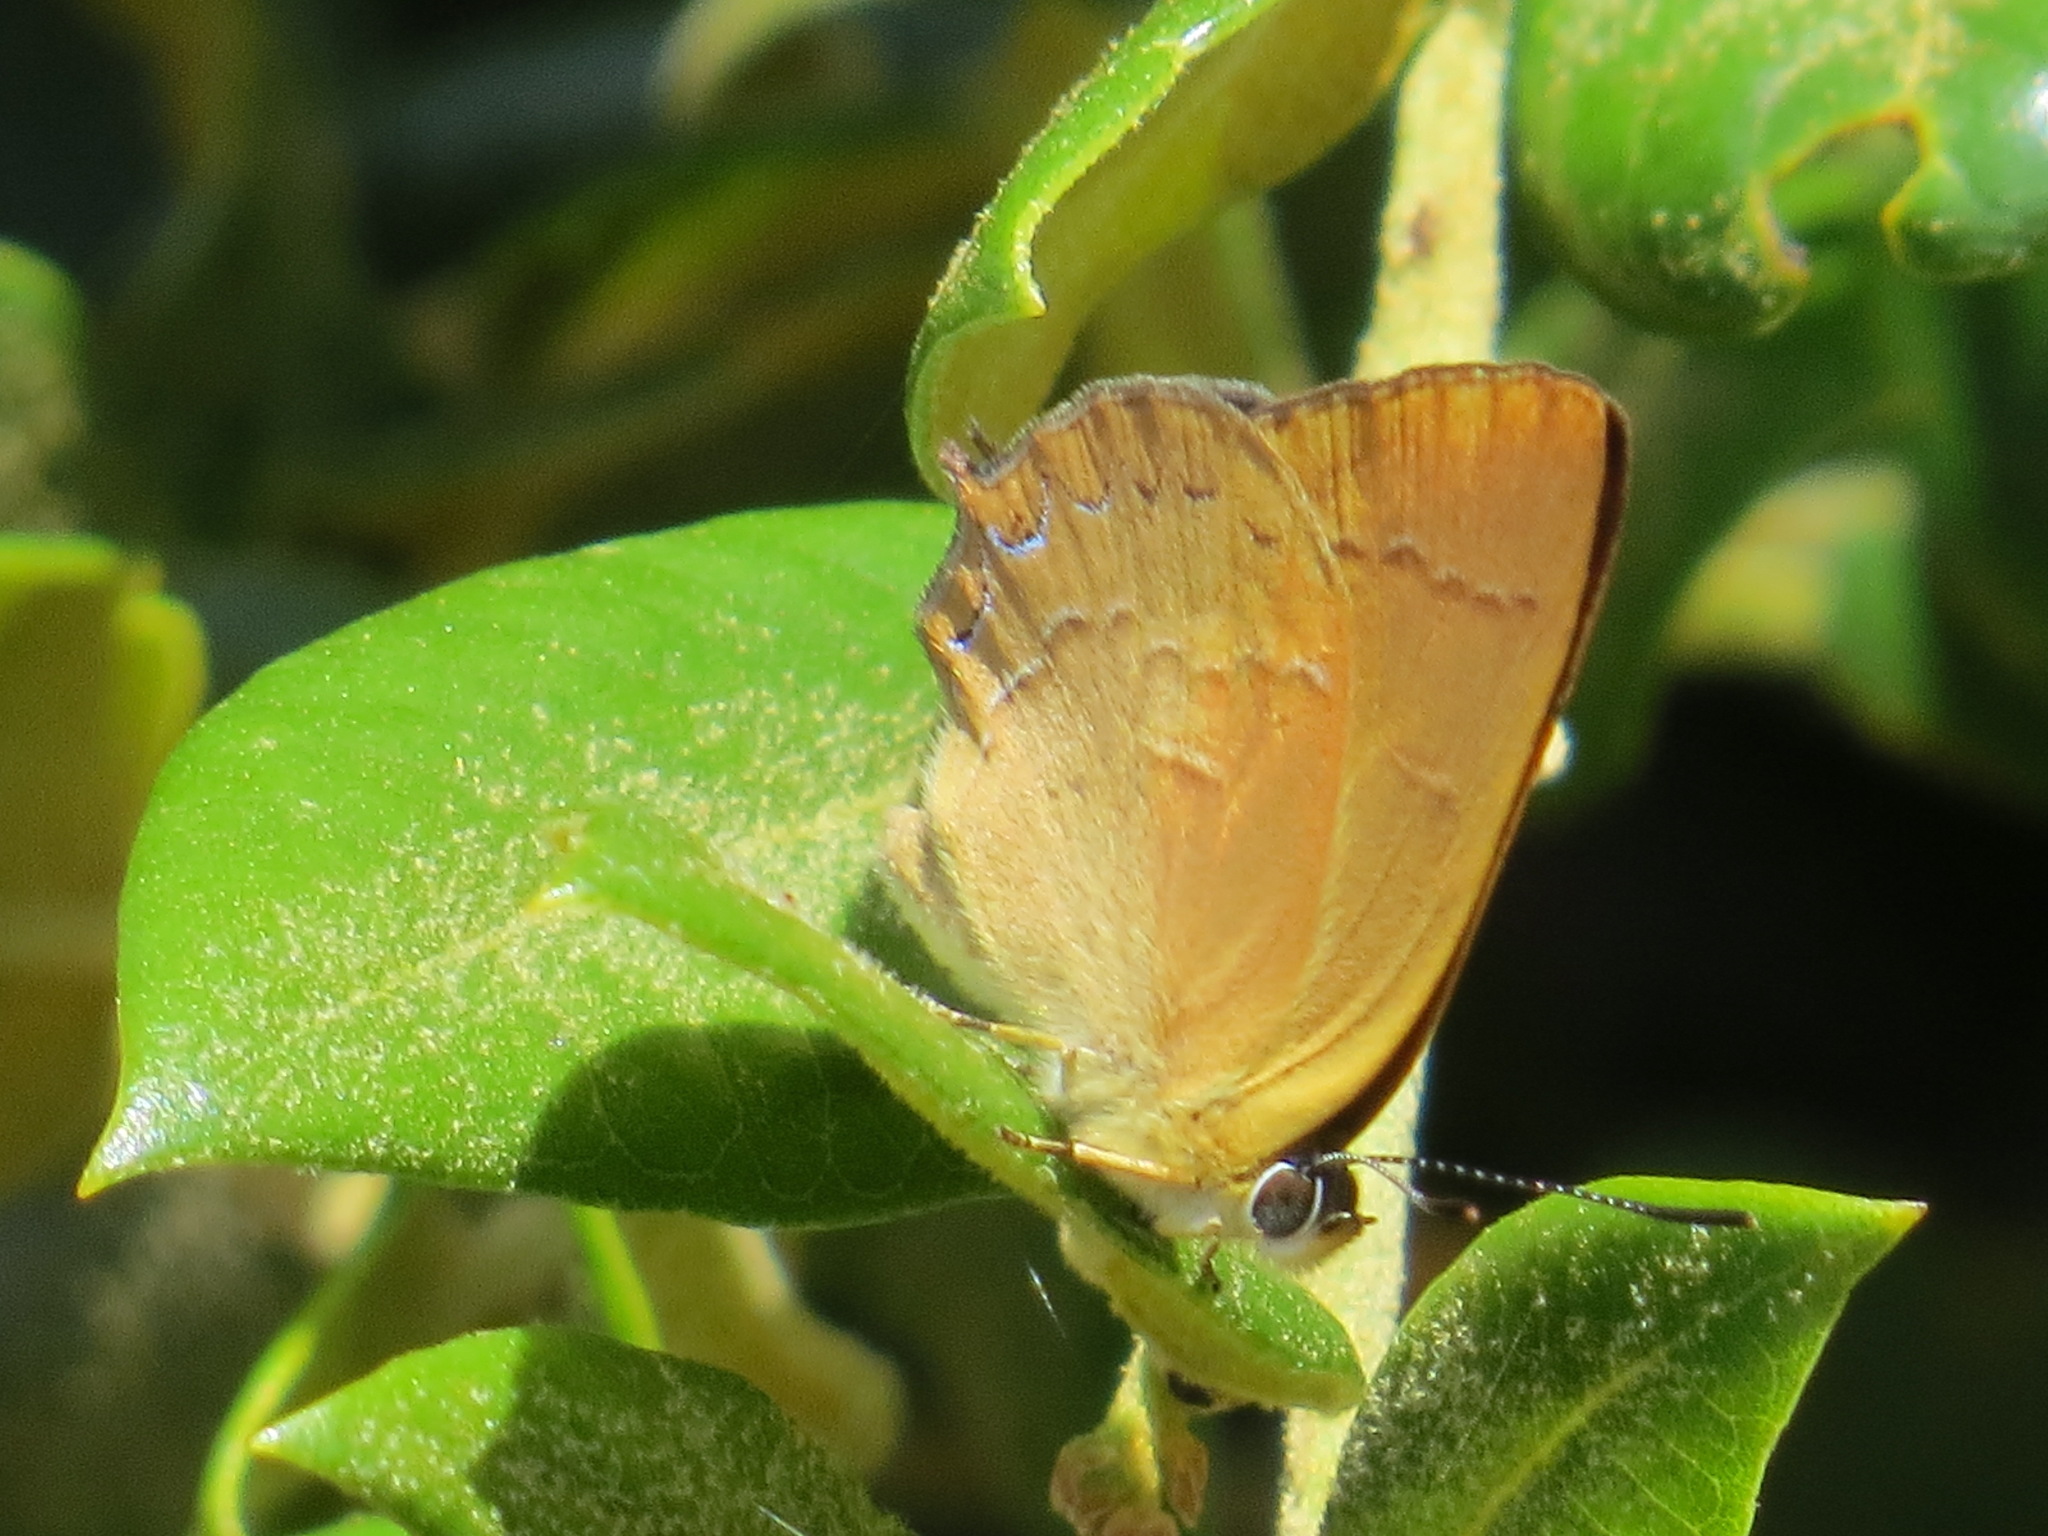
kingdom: Animalia
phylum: Arthropoda
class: Insecta
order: Lepidoptera
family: Lycaenidae
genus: Habrodais
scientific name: Habrodais grunus
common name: Golden hairstreak
